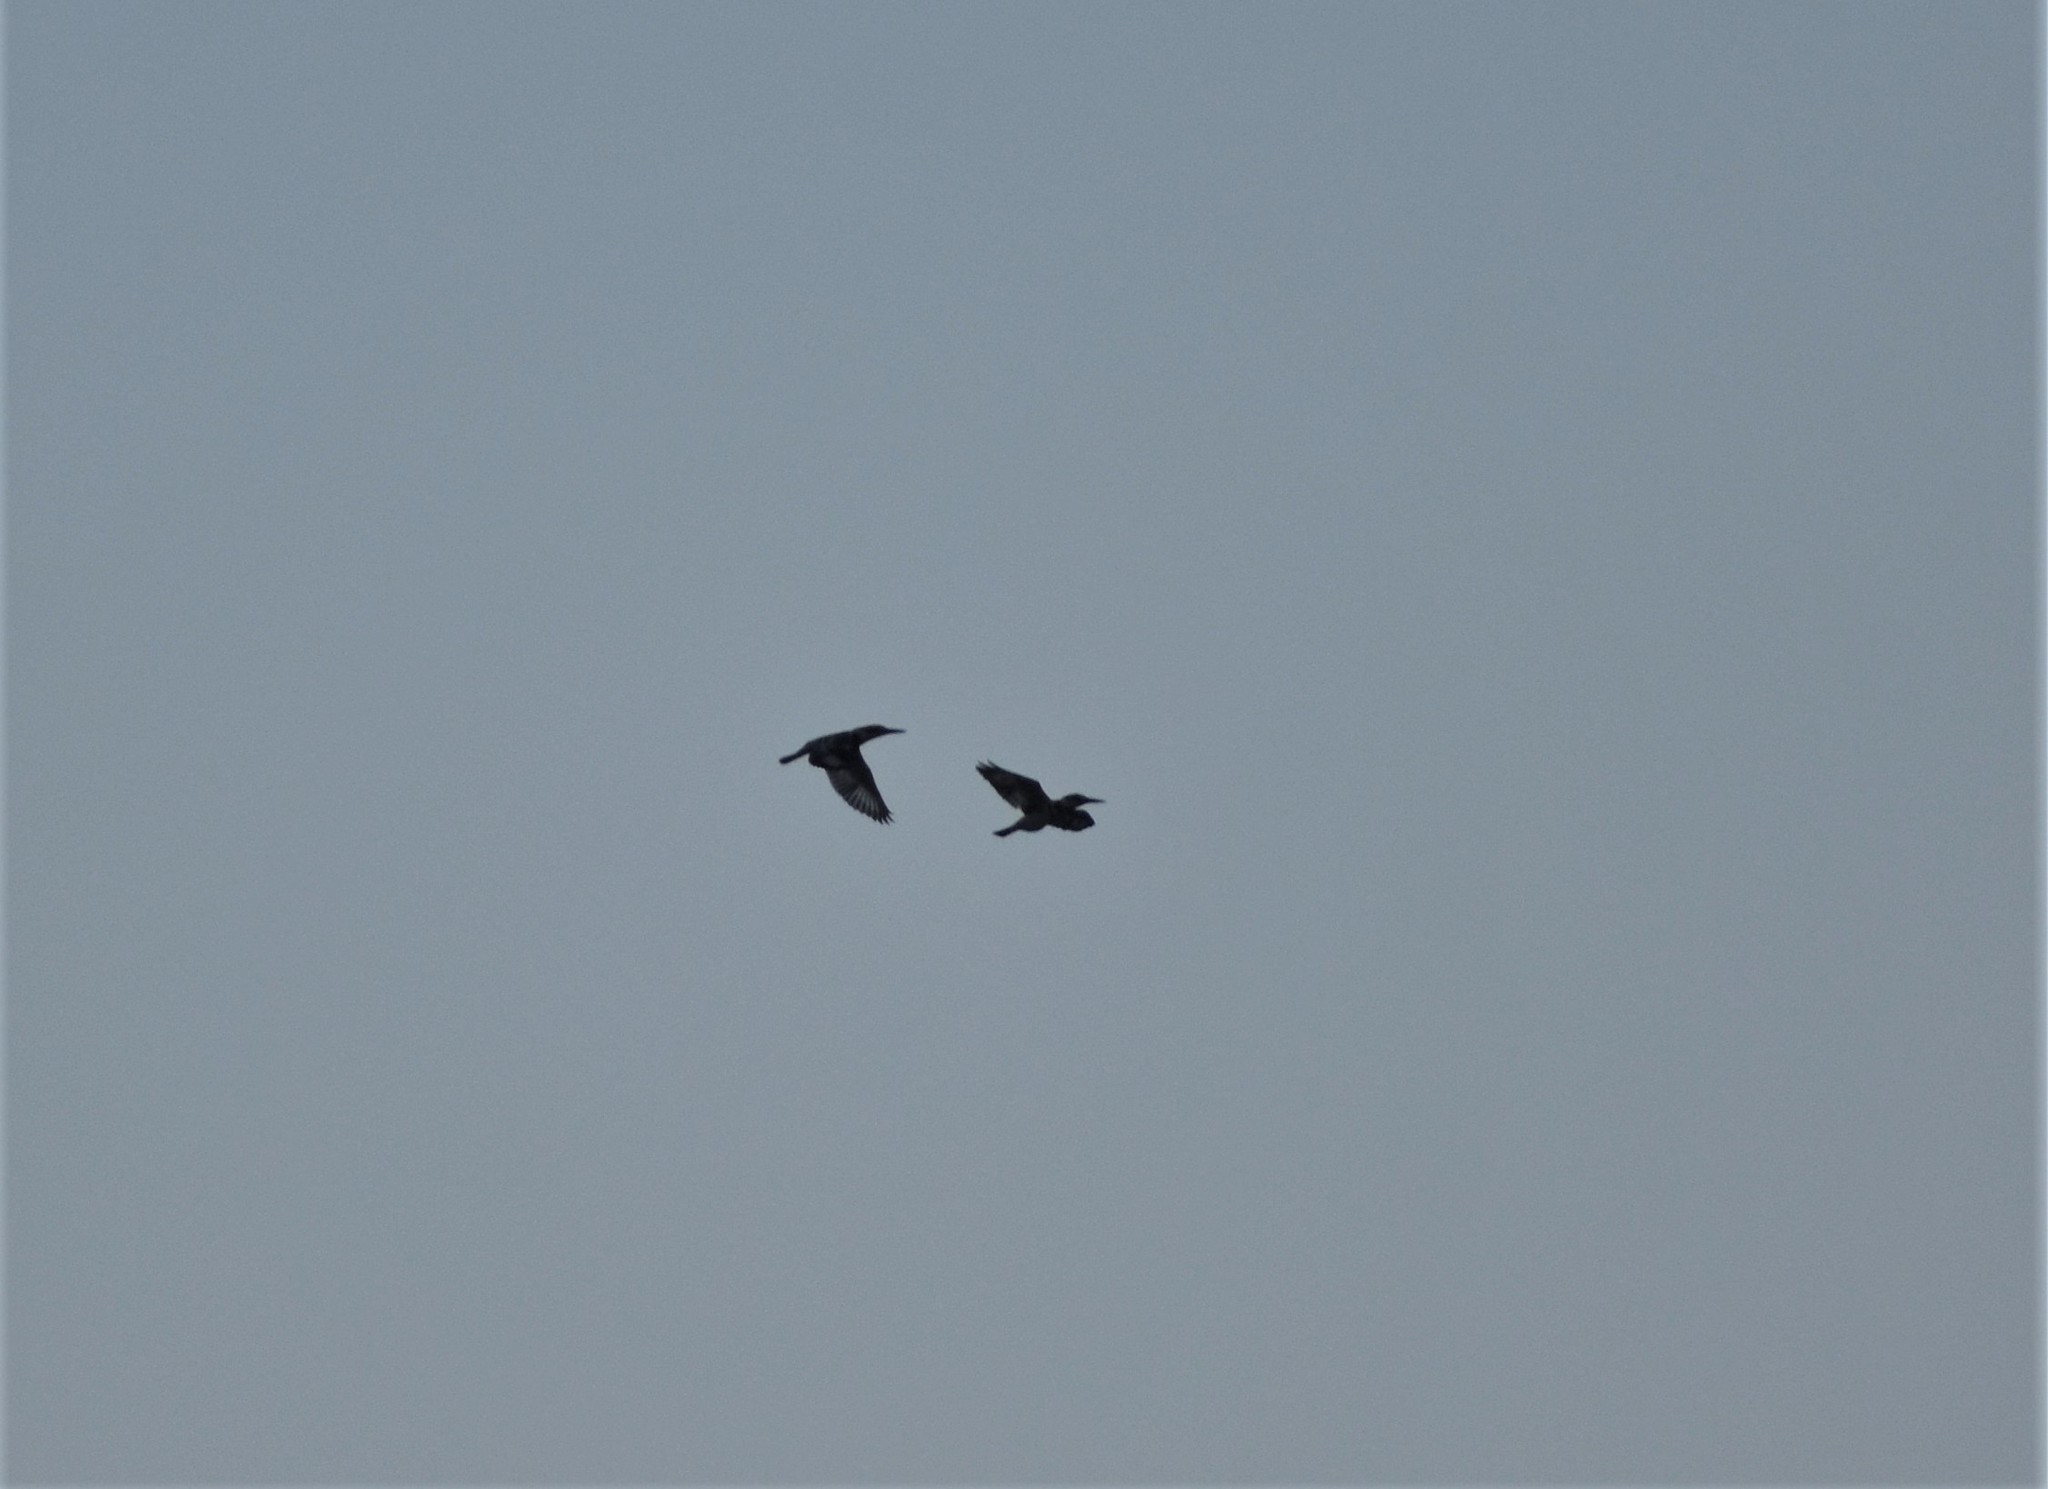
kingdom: Animalia
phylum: Chordata
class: Aves
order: Coraciiformes
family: Alcedinidae
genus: Ceryle
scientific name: Ceryle rudis
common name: Pied kingfisher
